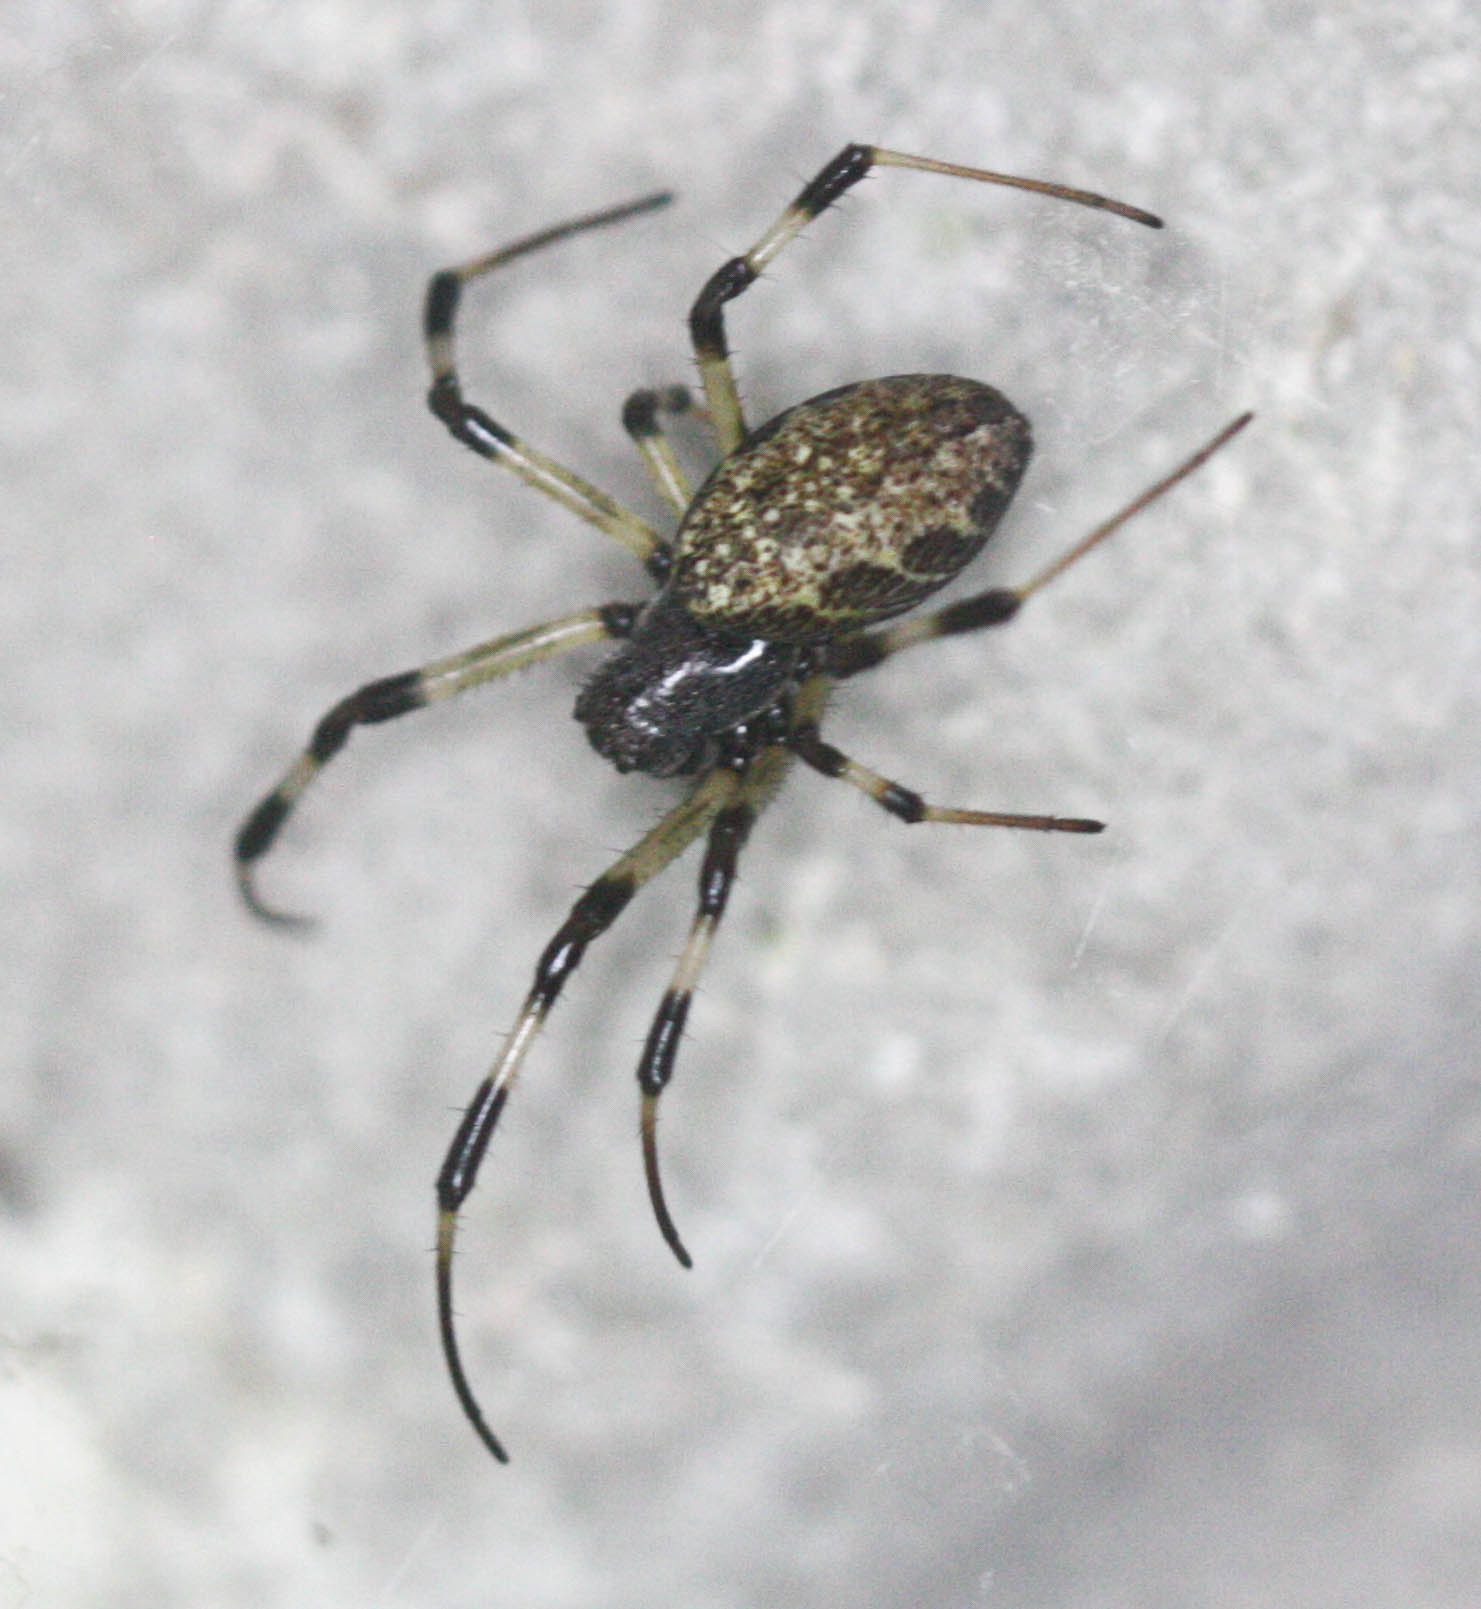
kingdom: Animalia
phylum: Arthropoda
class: Arachnida
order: Araneae
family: Araneidae
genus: Nephilengys
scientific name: Nephilengys malabarensis
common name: Asian hermit spider
